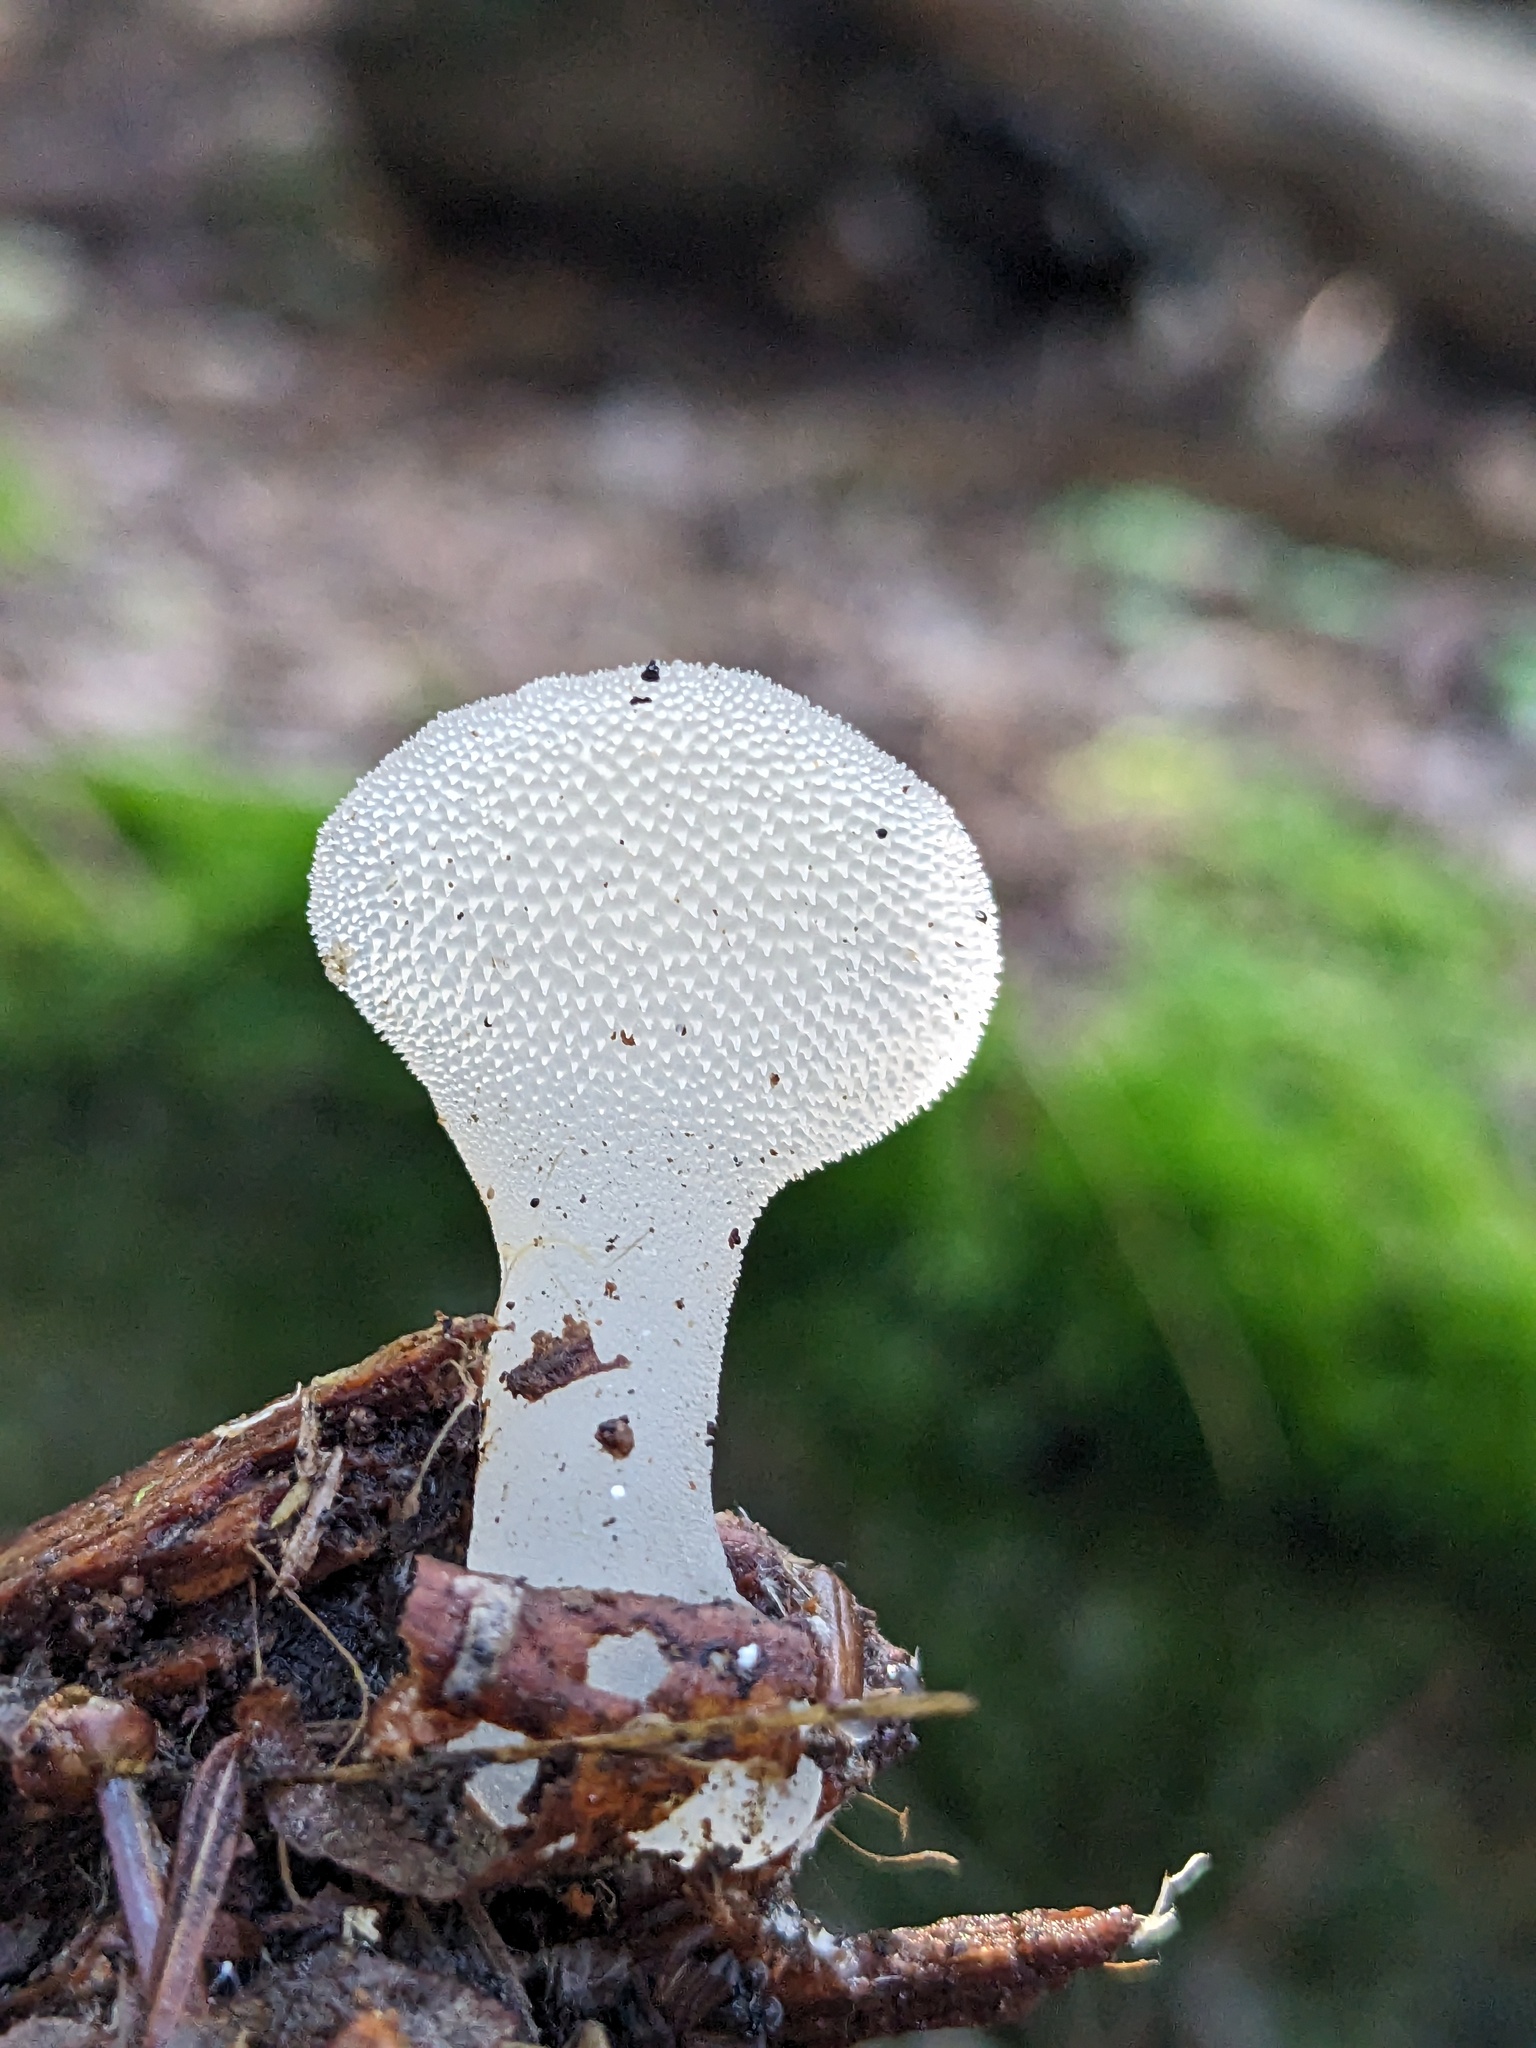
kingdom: Fungi
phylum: Basidiomycota
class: Agaricomycetes
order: Auriculariales
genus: Pseudohydnum
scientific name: Pseudohydnum gelatinosum
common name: Jelly tongue
